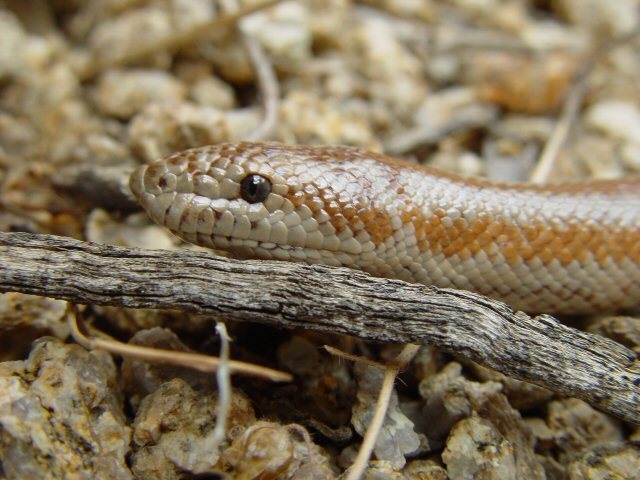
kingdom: Animalia
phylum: Chordata
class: Squamata
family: Boidae
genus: Lichanura
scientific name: Lichanura orcutti
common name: Northern three-lined boa
